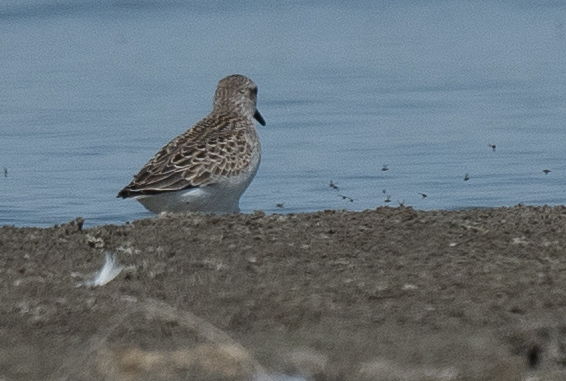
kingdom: Animalia
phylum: Chordata
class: Aves
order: Charadriiformes
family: Scolopacidae
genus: Calidris
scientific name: Calidris pusilla
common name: Semipalmated sandpiper
